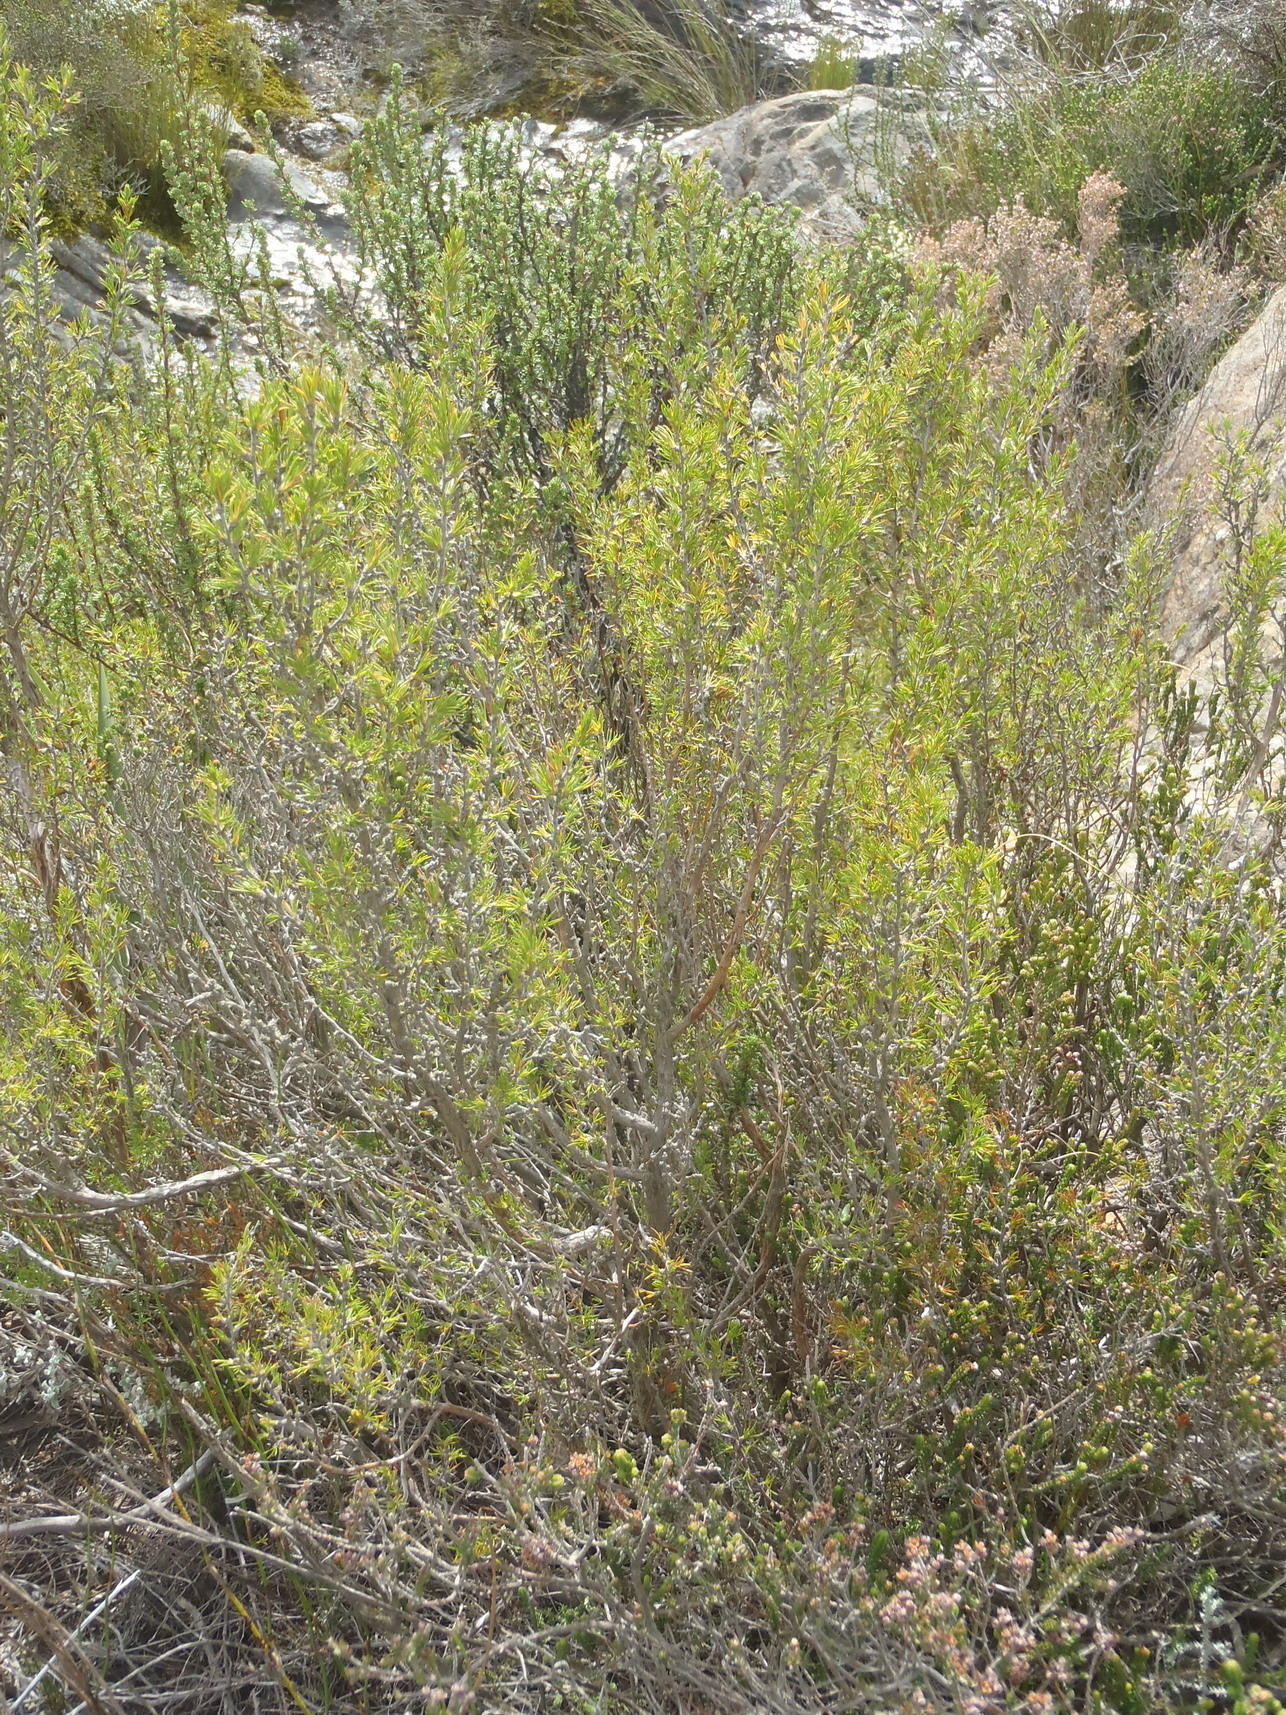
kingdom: Plantae
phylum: Tracheophyta
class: Magnoliopsida
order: Rosales
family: Rosaceae
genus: Cliffortia
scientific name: Cliffortia tuberculata
